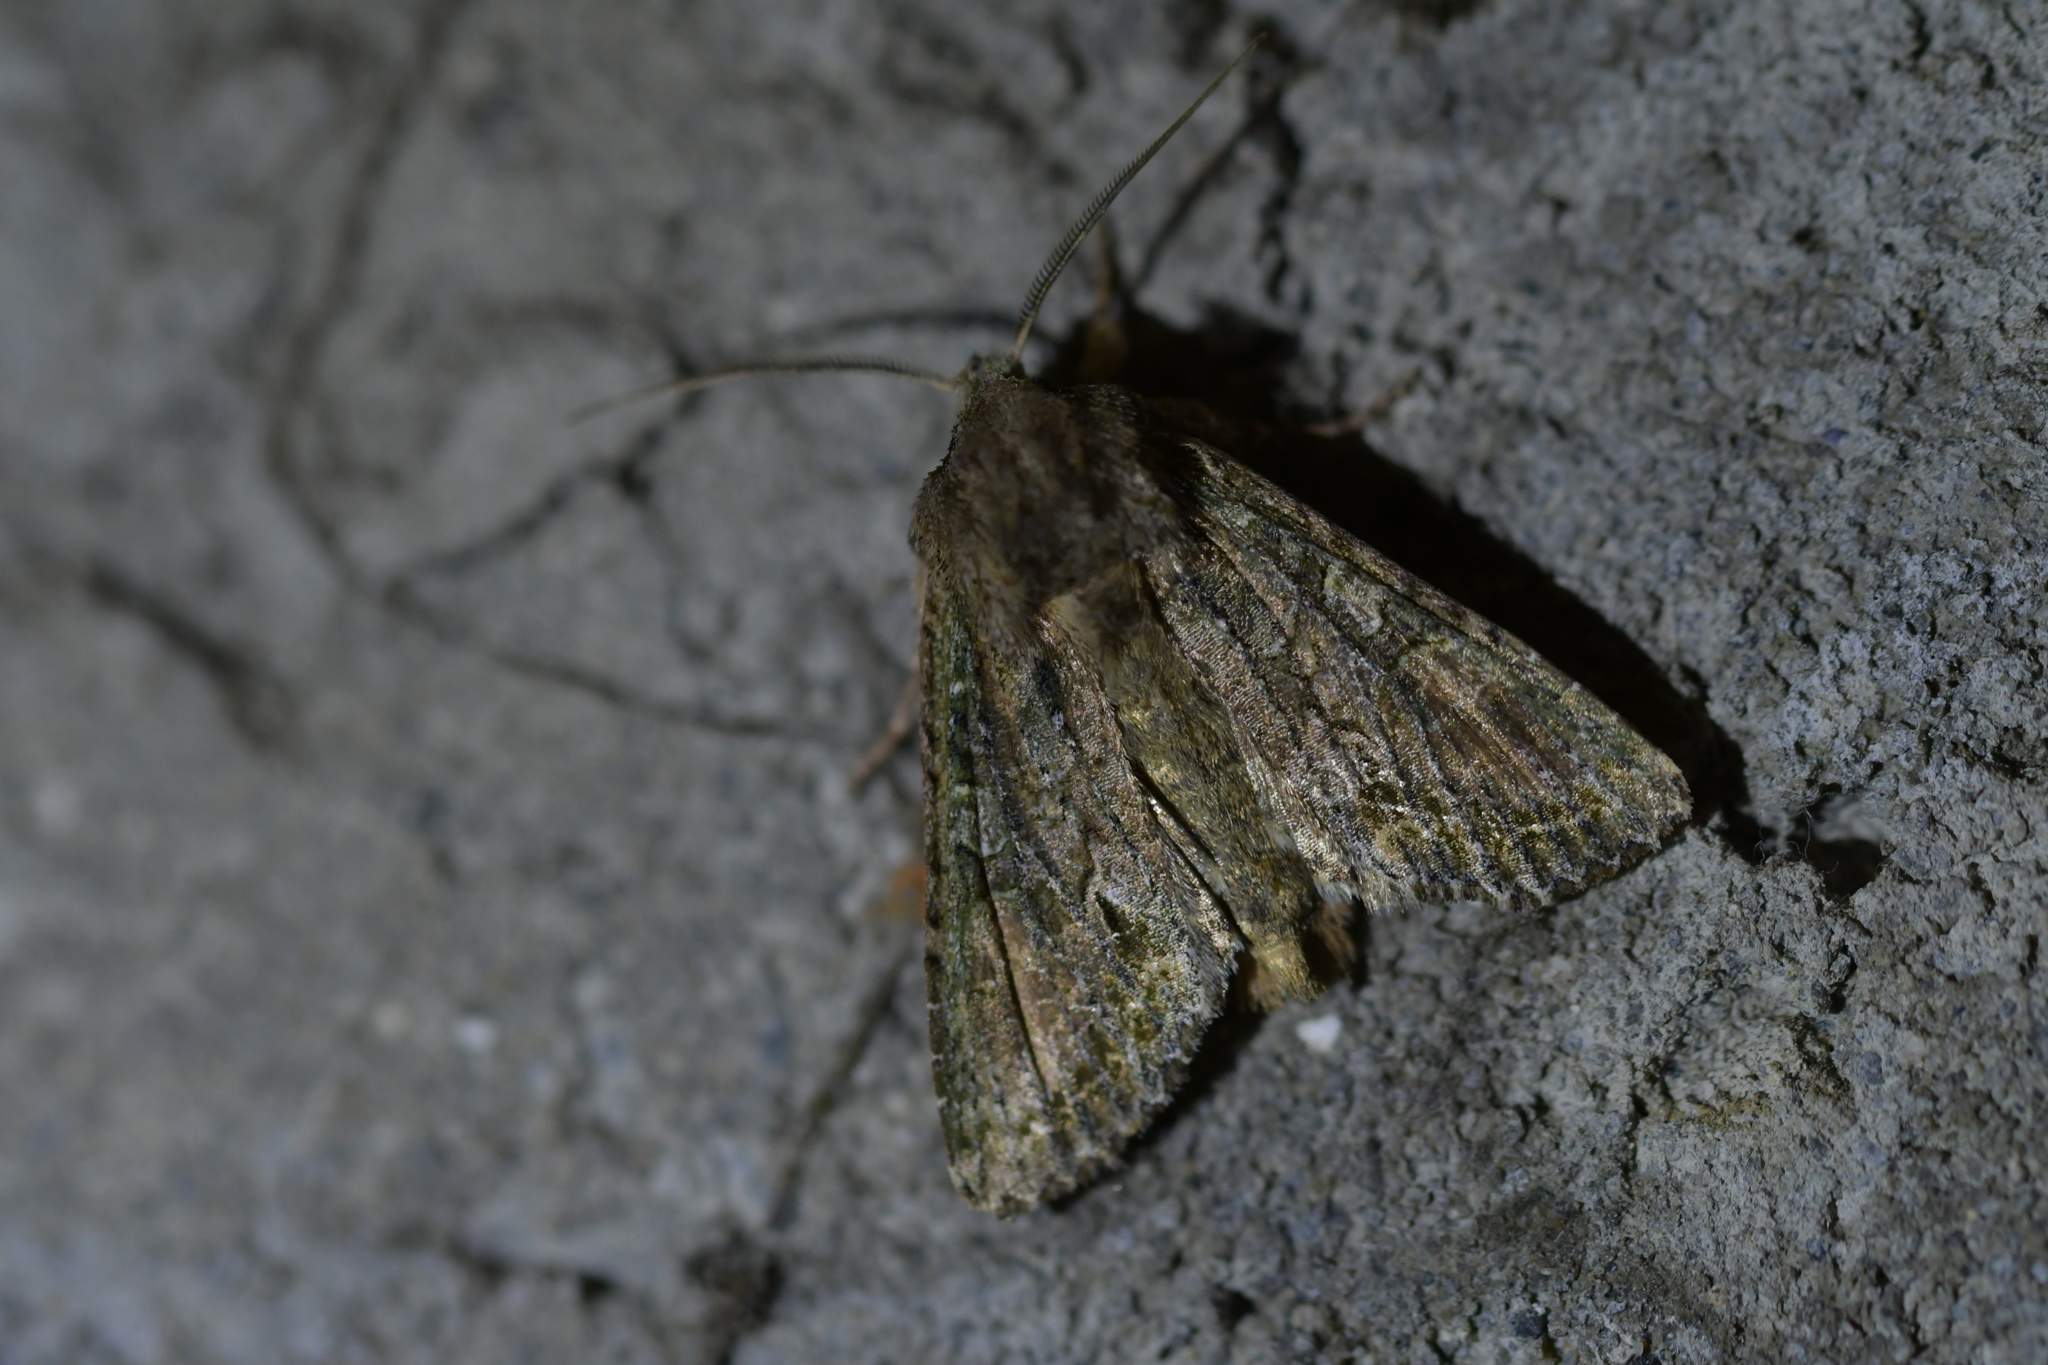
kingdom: Animalia
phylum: Arthropoda
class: Insecta
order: Lepidoptera
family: Noctuidae
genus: Ichneutica
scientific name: Ichneutica mutans
